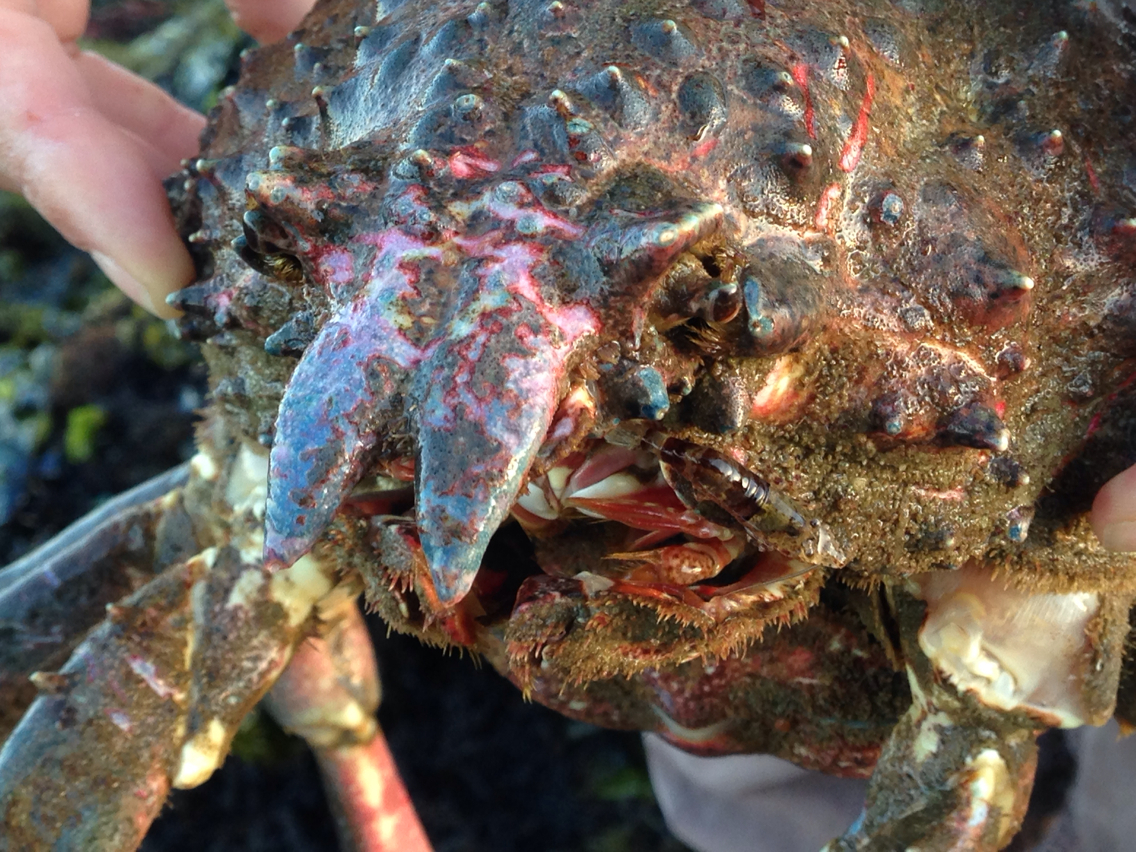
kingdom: Animalia
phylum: Arthropoda
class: Malacostraca
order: Decapoda
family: Epialtidae
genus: Loxorhynchus
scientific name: Loxorhynchus grandis
